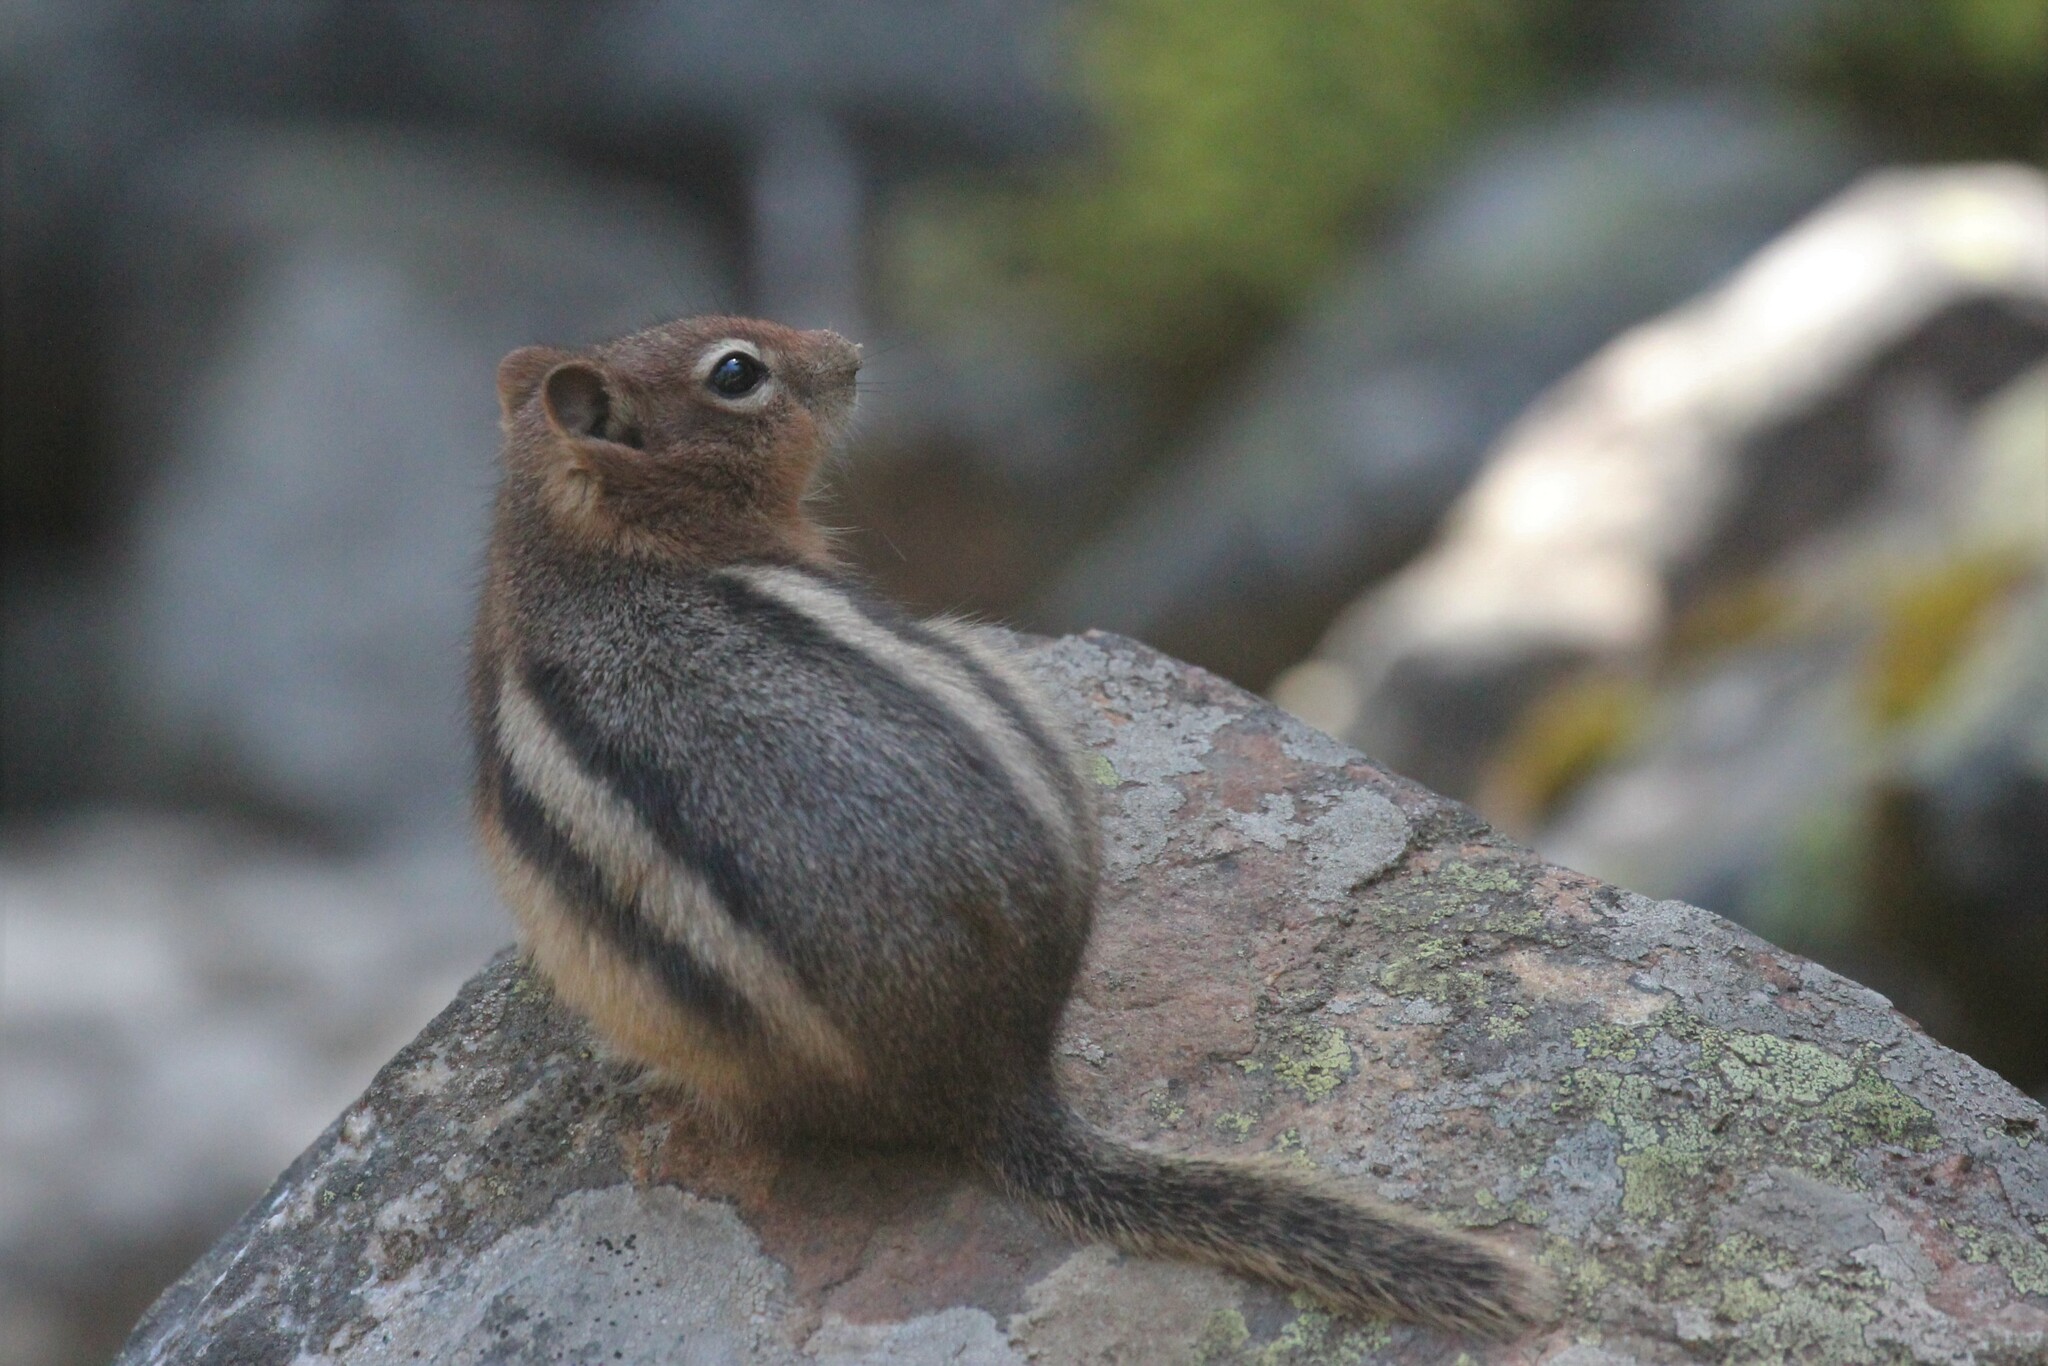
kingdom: Animalia
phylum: Chordata
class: Mammalia
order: Rodentia
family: Sciuridae
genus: Callospermophilus
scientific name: Callospermophilus lateralis
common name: Golden-mantled ground squirrel
